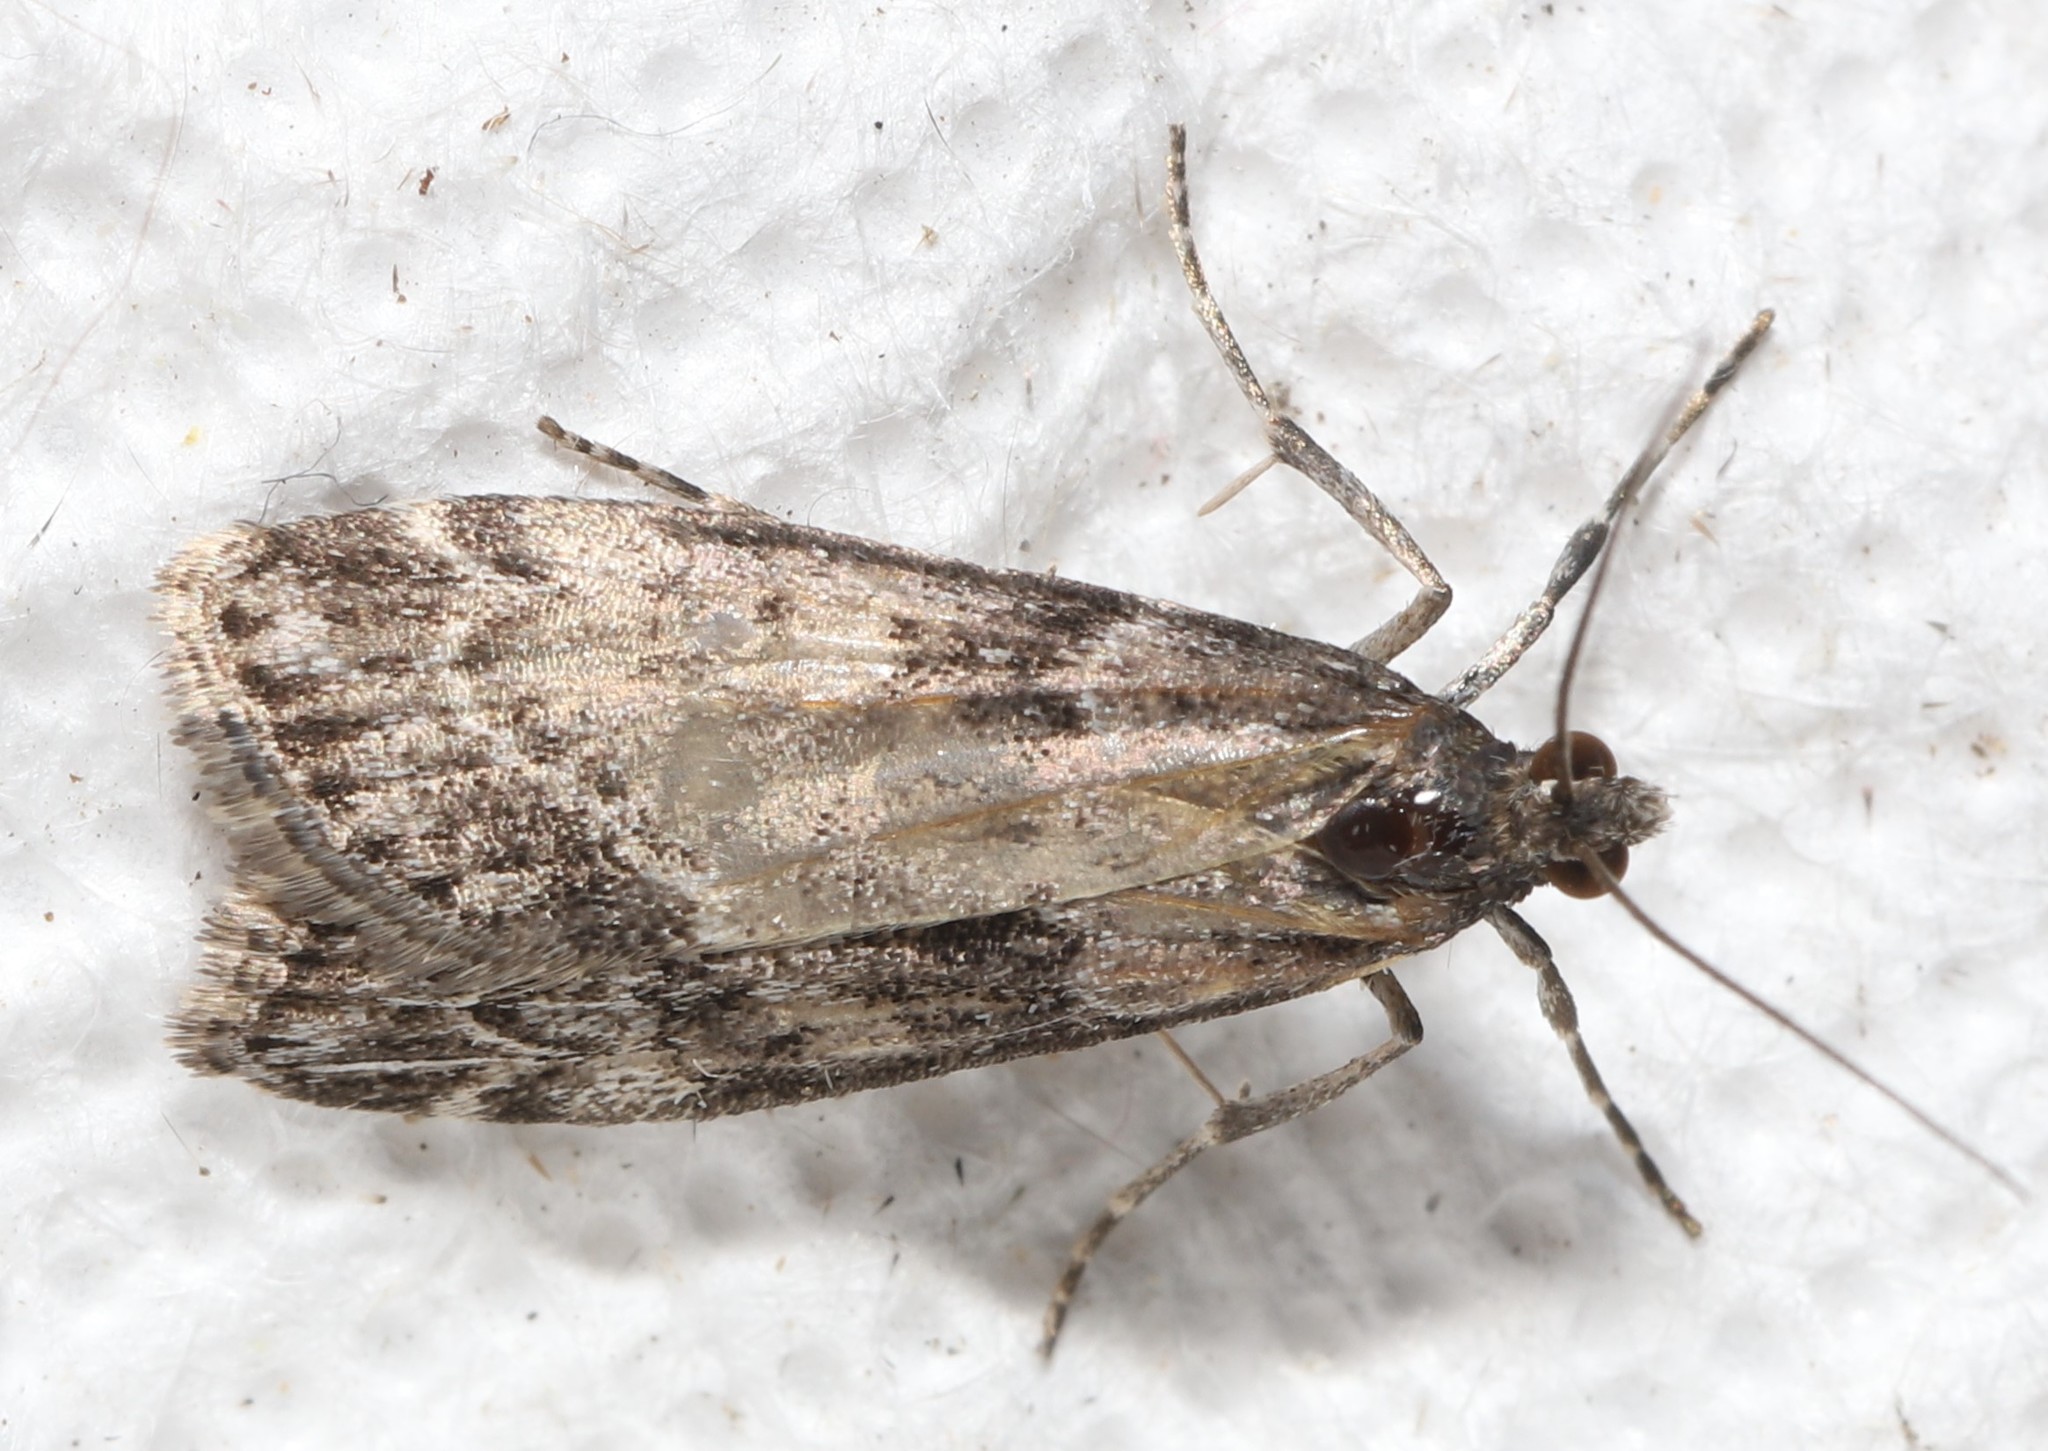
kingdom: Animalia
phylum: Arthropoda
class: Insecta
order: Lepidoptera
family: Crambidae
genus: Scoparia
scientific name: Scoparia biplagialis
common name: Double-striped scoparia moth
